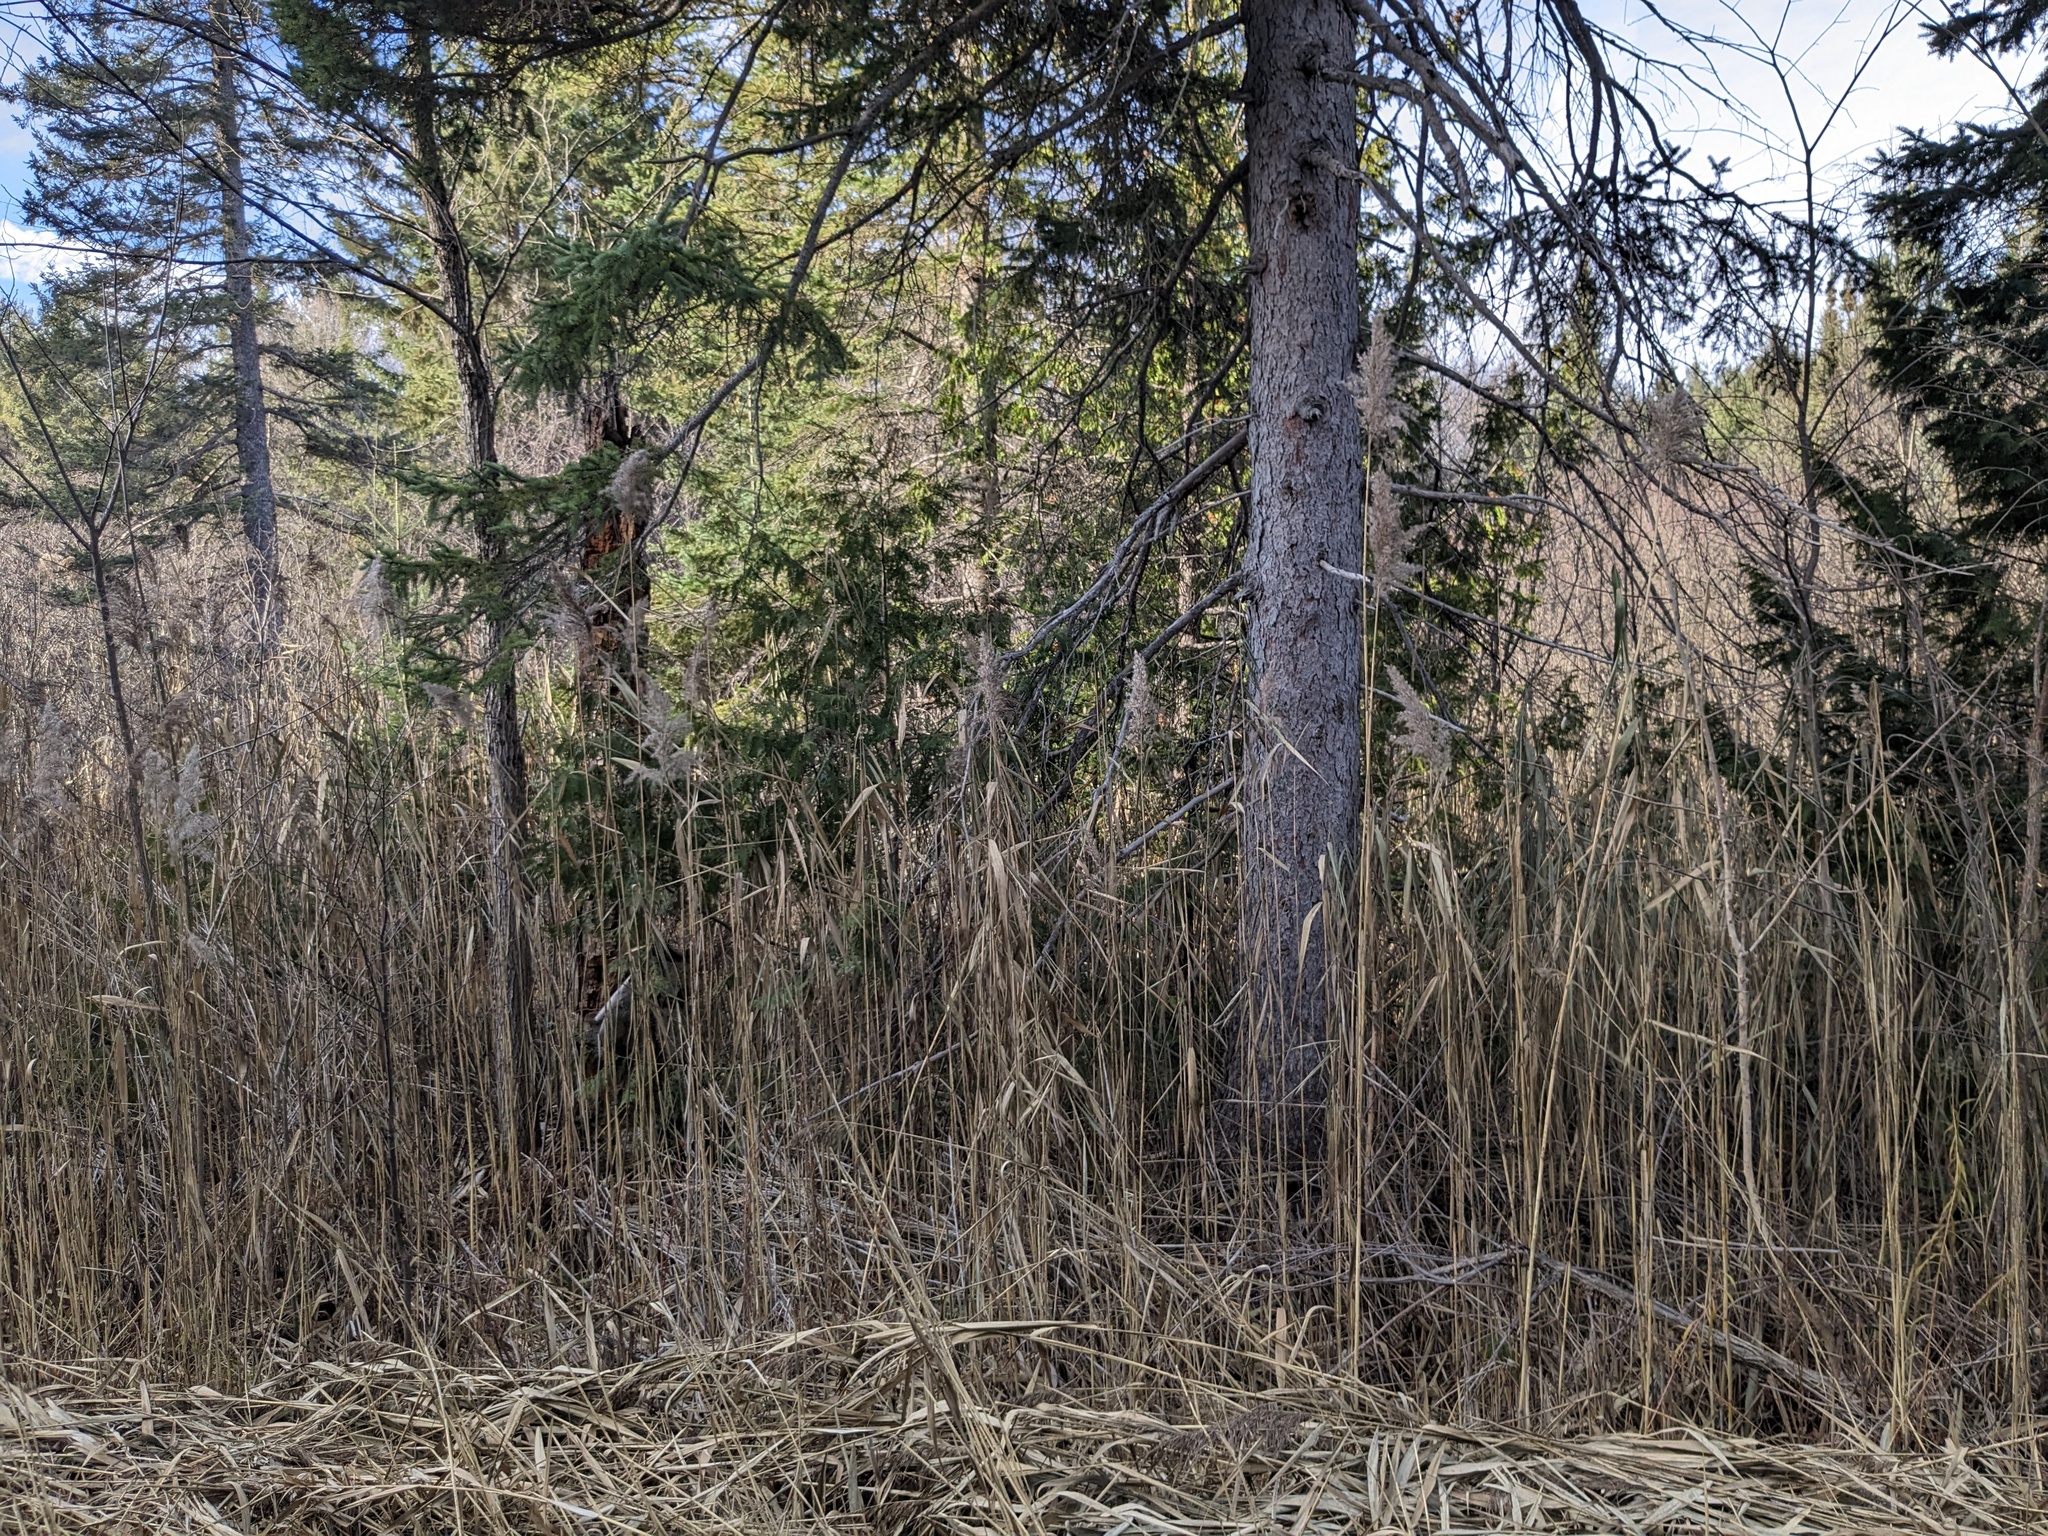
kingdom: Plantae
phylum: Tracheophyta
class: Liliopsida
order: Poales
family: Poaceae
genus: Phragmites
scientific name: Phragmites australis
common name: Common reed
